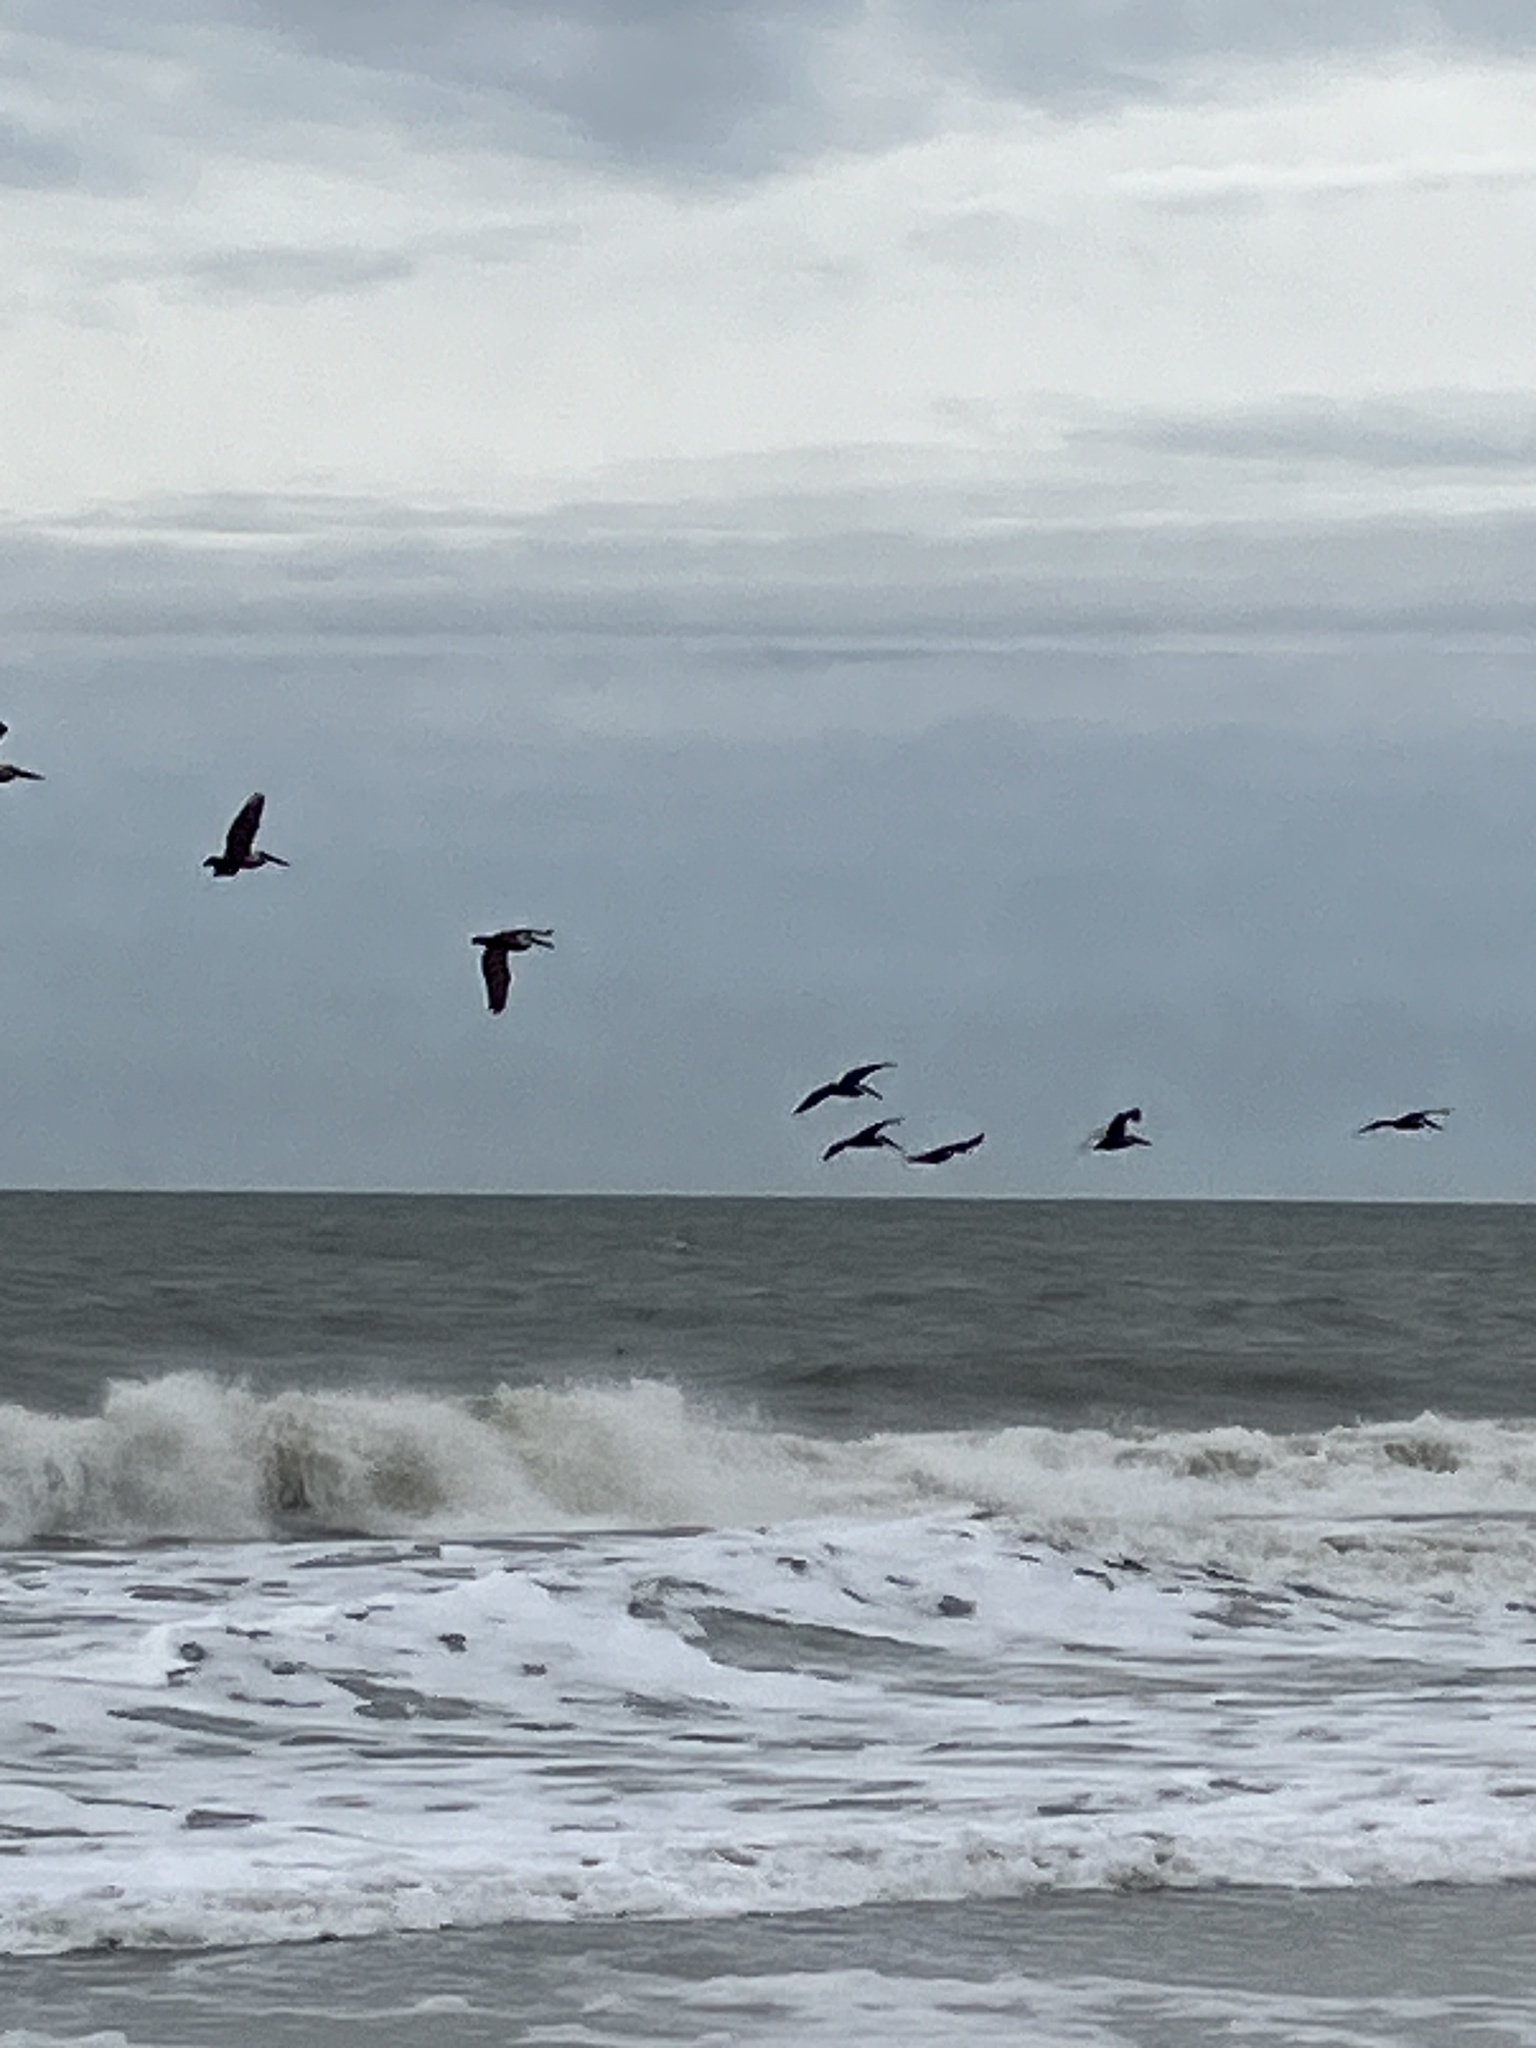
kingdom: Animalia
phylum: Chordata
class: Aves
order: Pelecaniformes
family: Pelecanidae
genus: Pelecanus
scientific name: Pelecanus occidentalis
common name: Brown pelican
